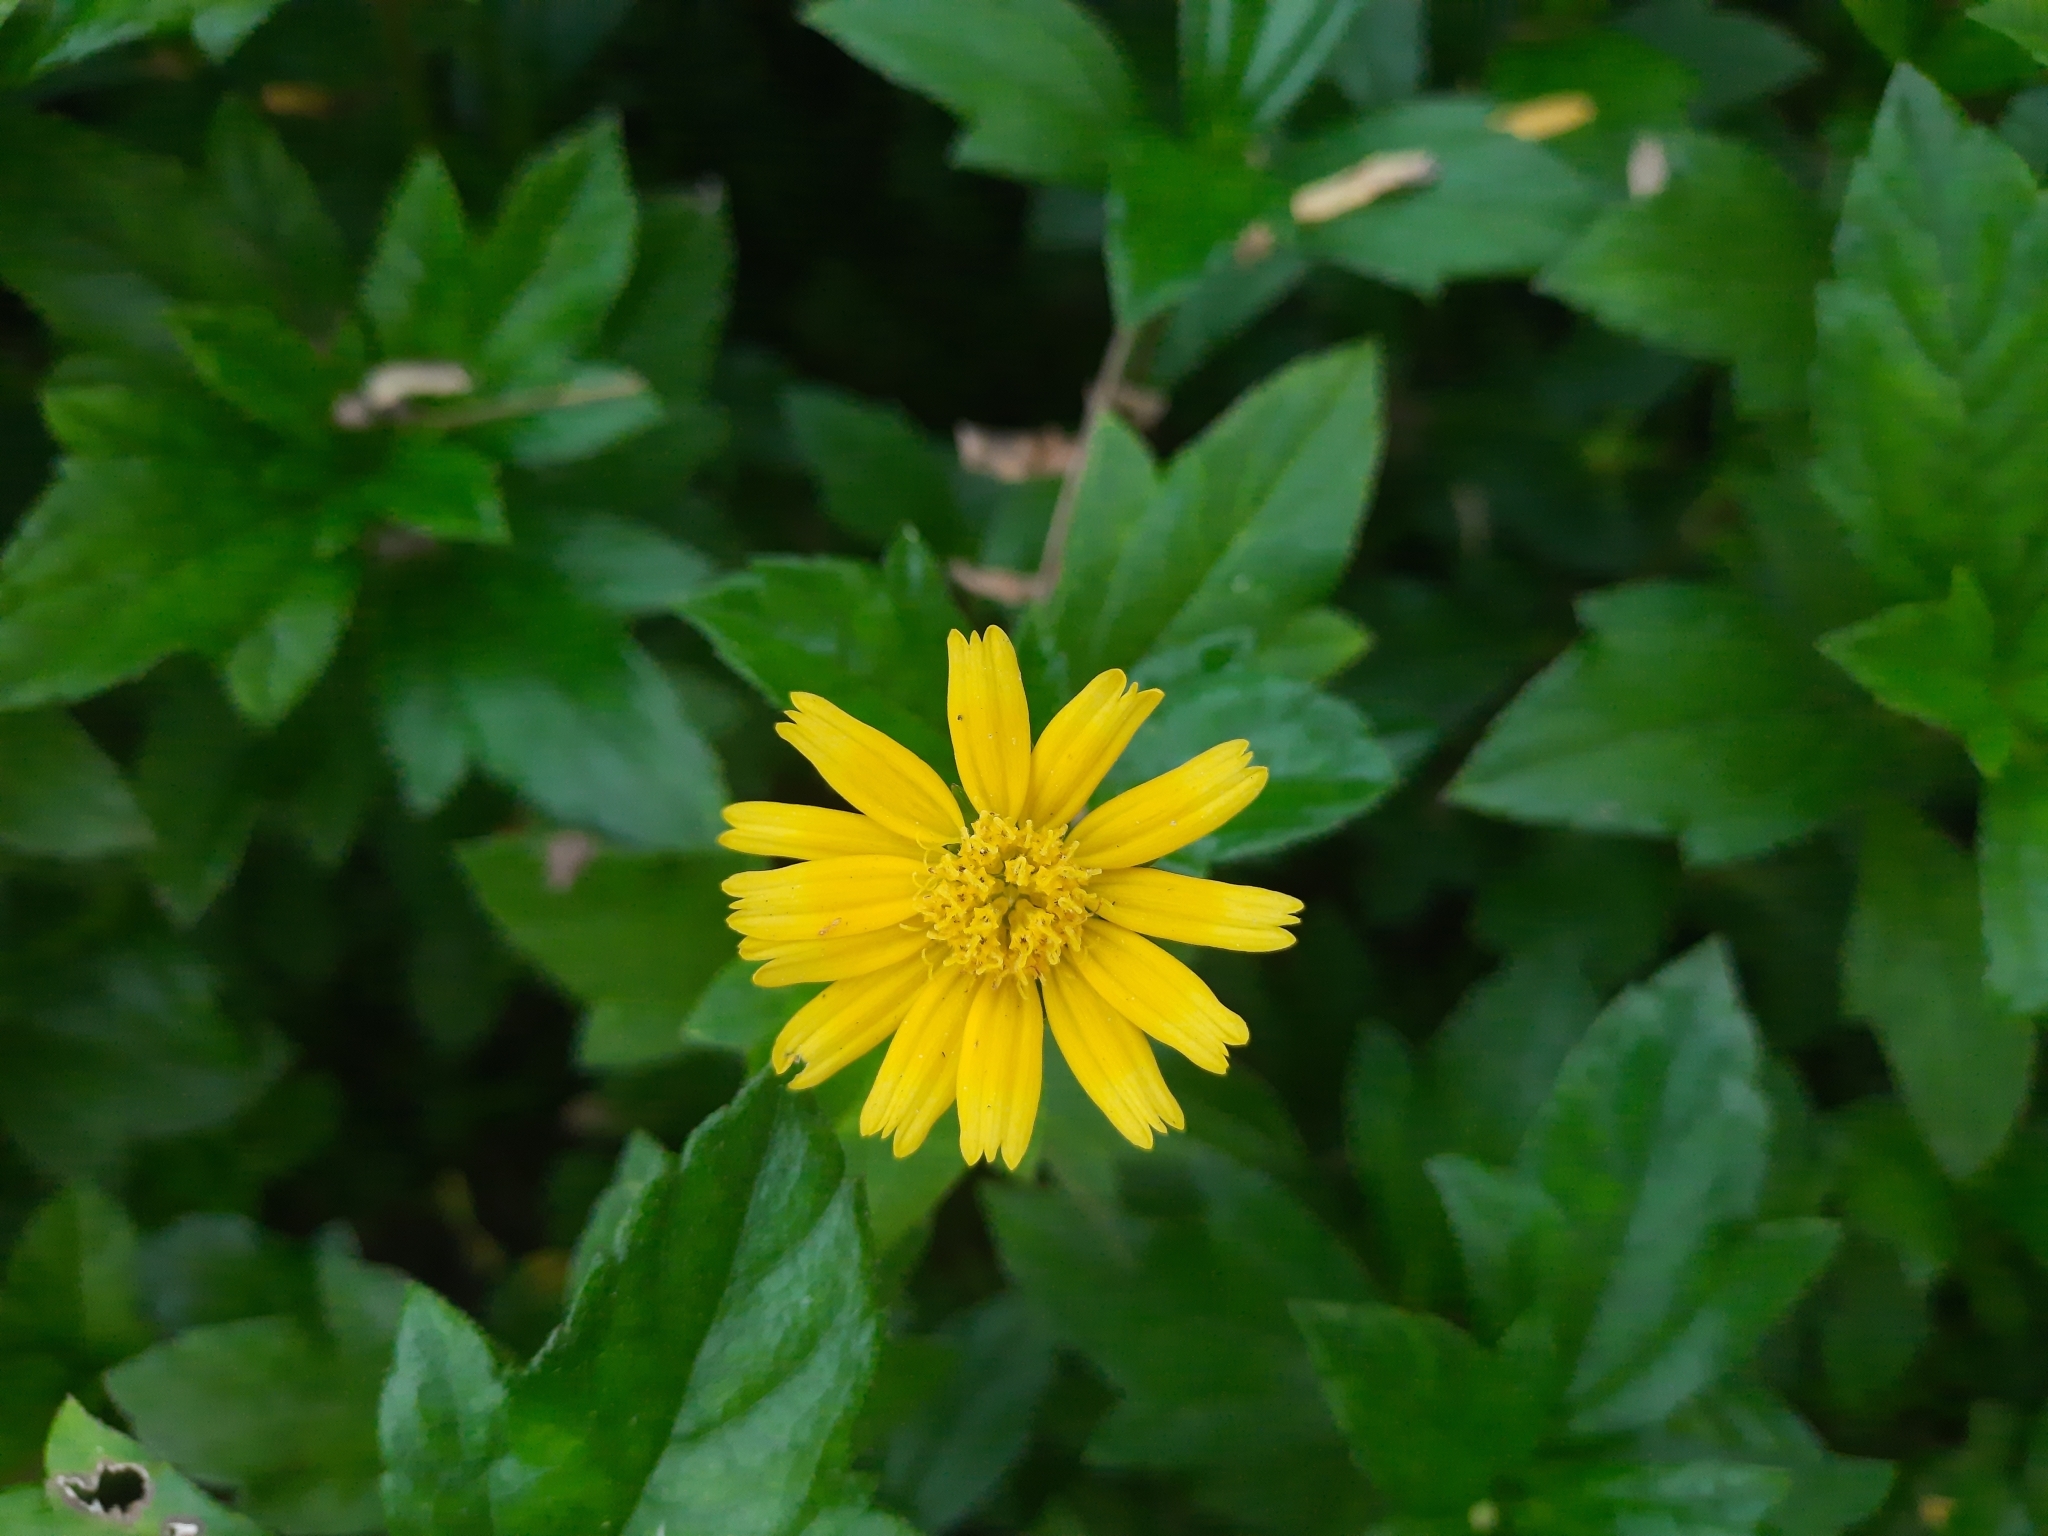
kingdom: Plantae
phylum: Tracheophyta
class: Magnoliopsida
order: Asterales
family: Asteraceae
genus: Sphagneticola
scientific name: Sphagneticola trilobata
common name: Bay biscayne creeping-oxeye
